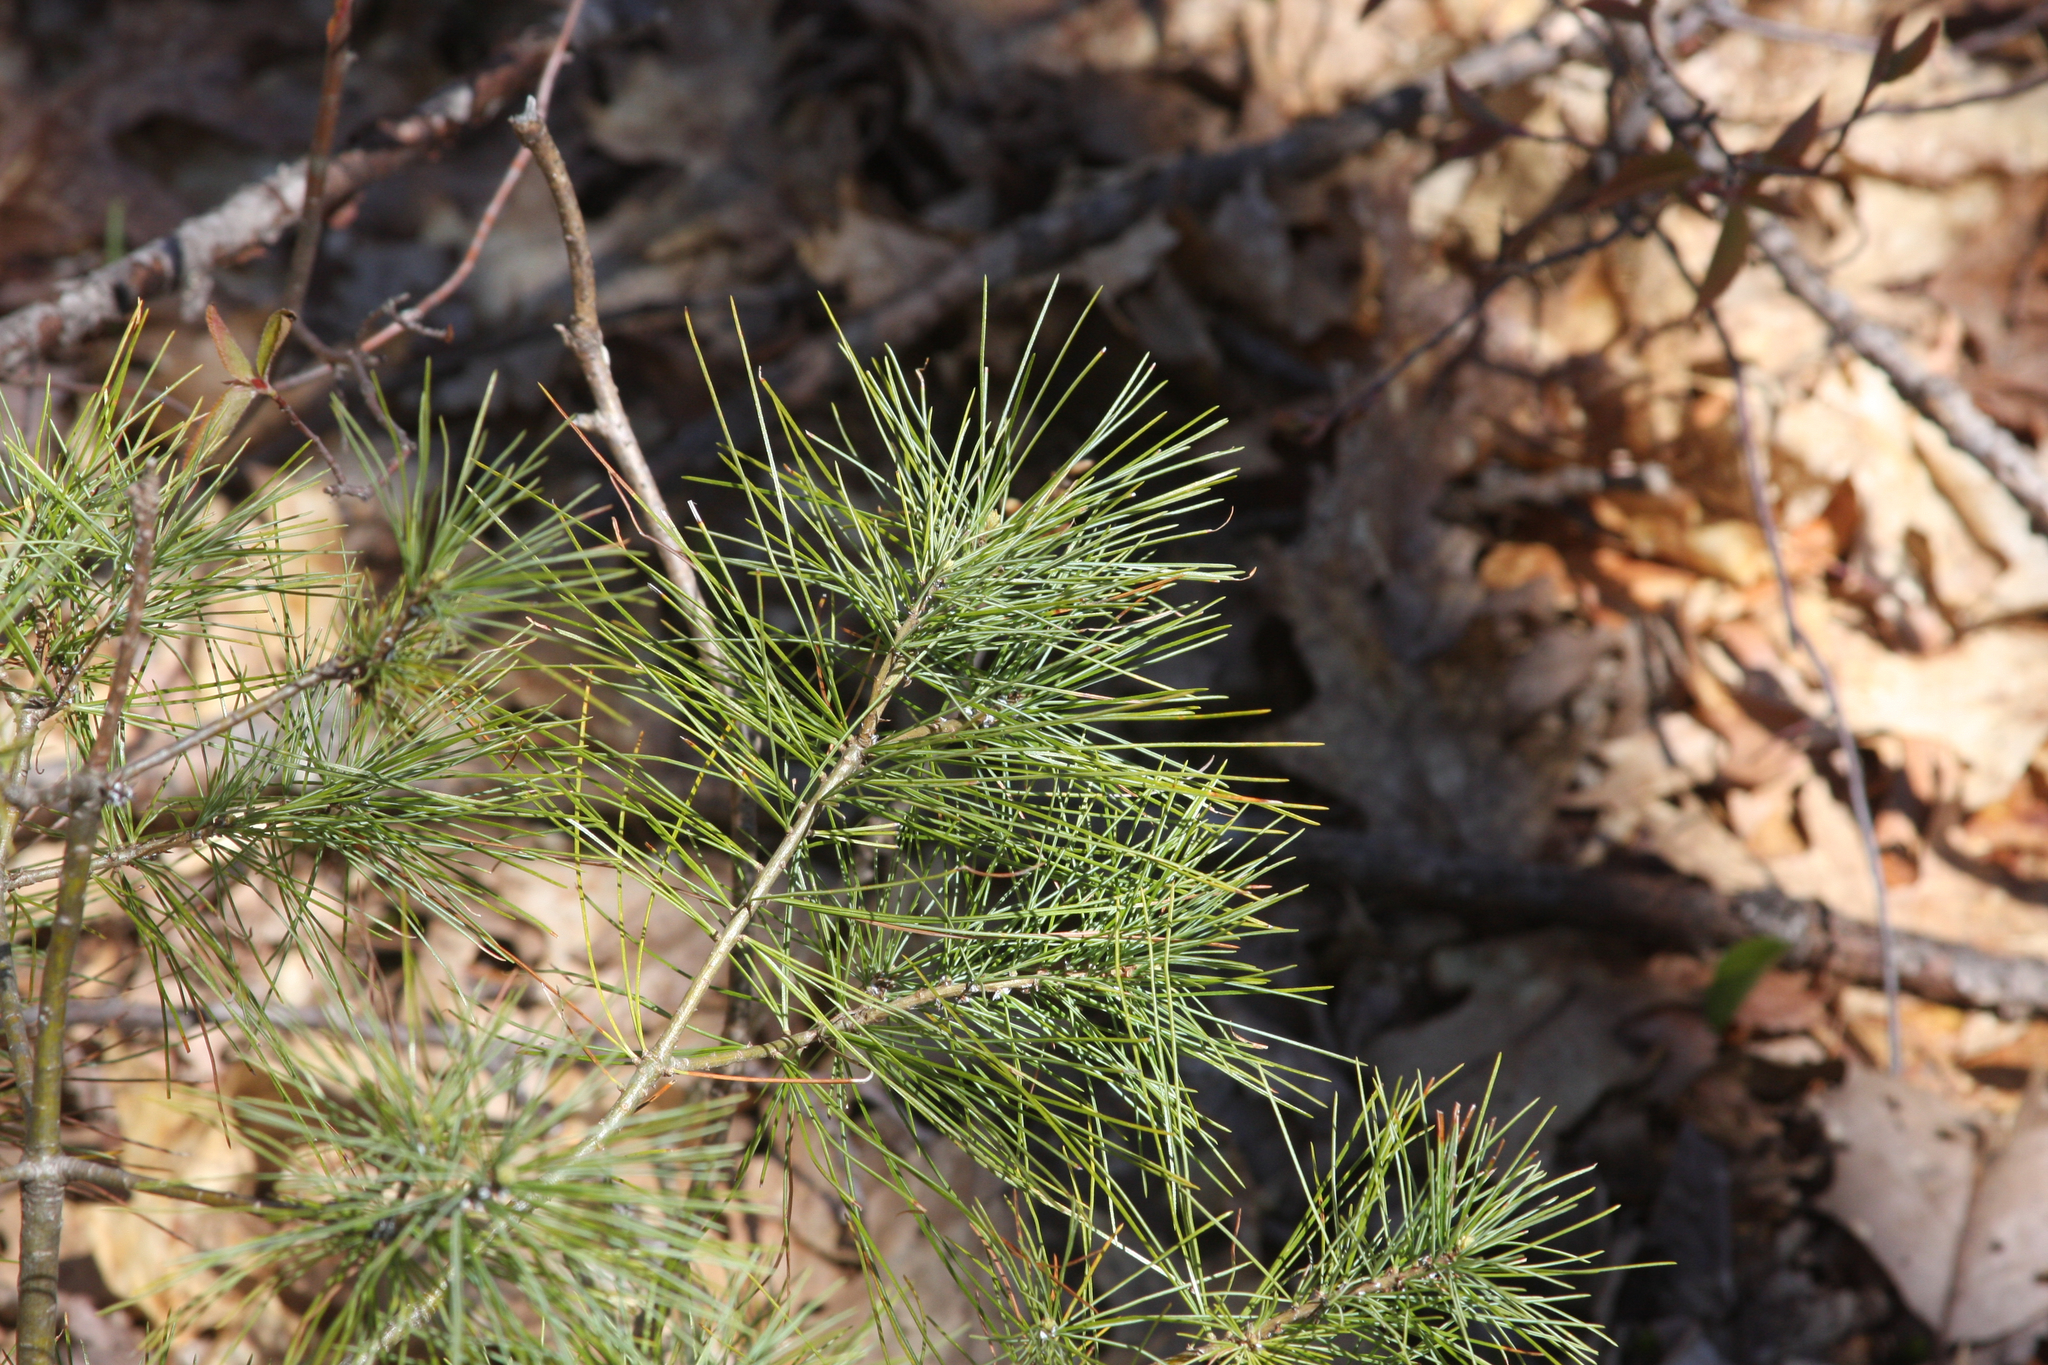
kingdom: Plantae
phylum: Tracheophyta
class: Pinopsida
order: Pinales
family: Pinaceae
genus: Pinus
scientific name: Pinus strobus
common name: Weymouth pine
